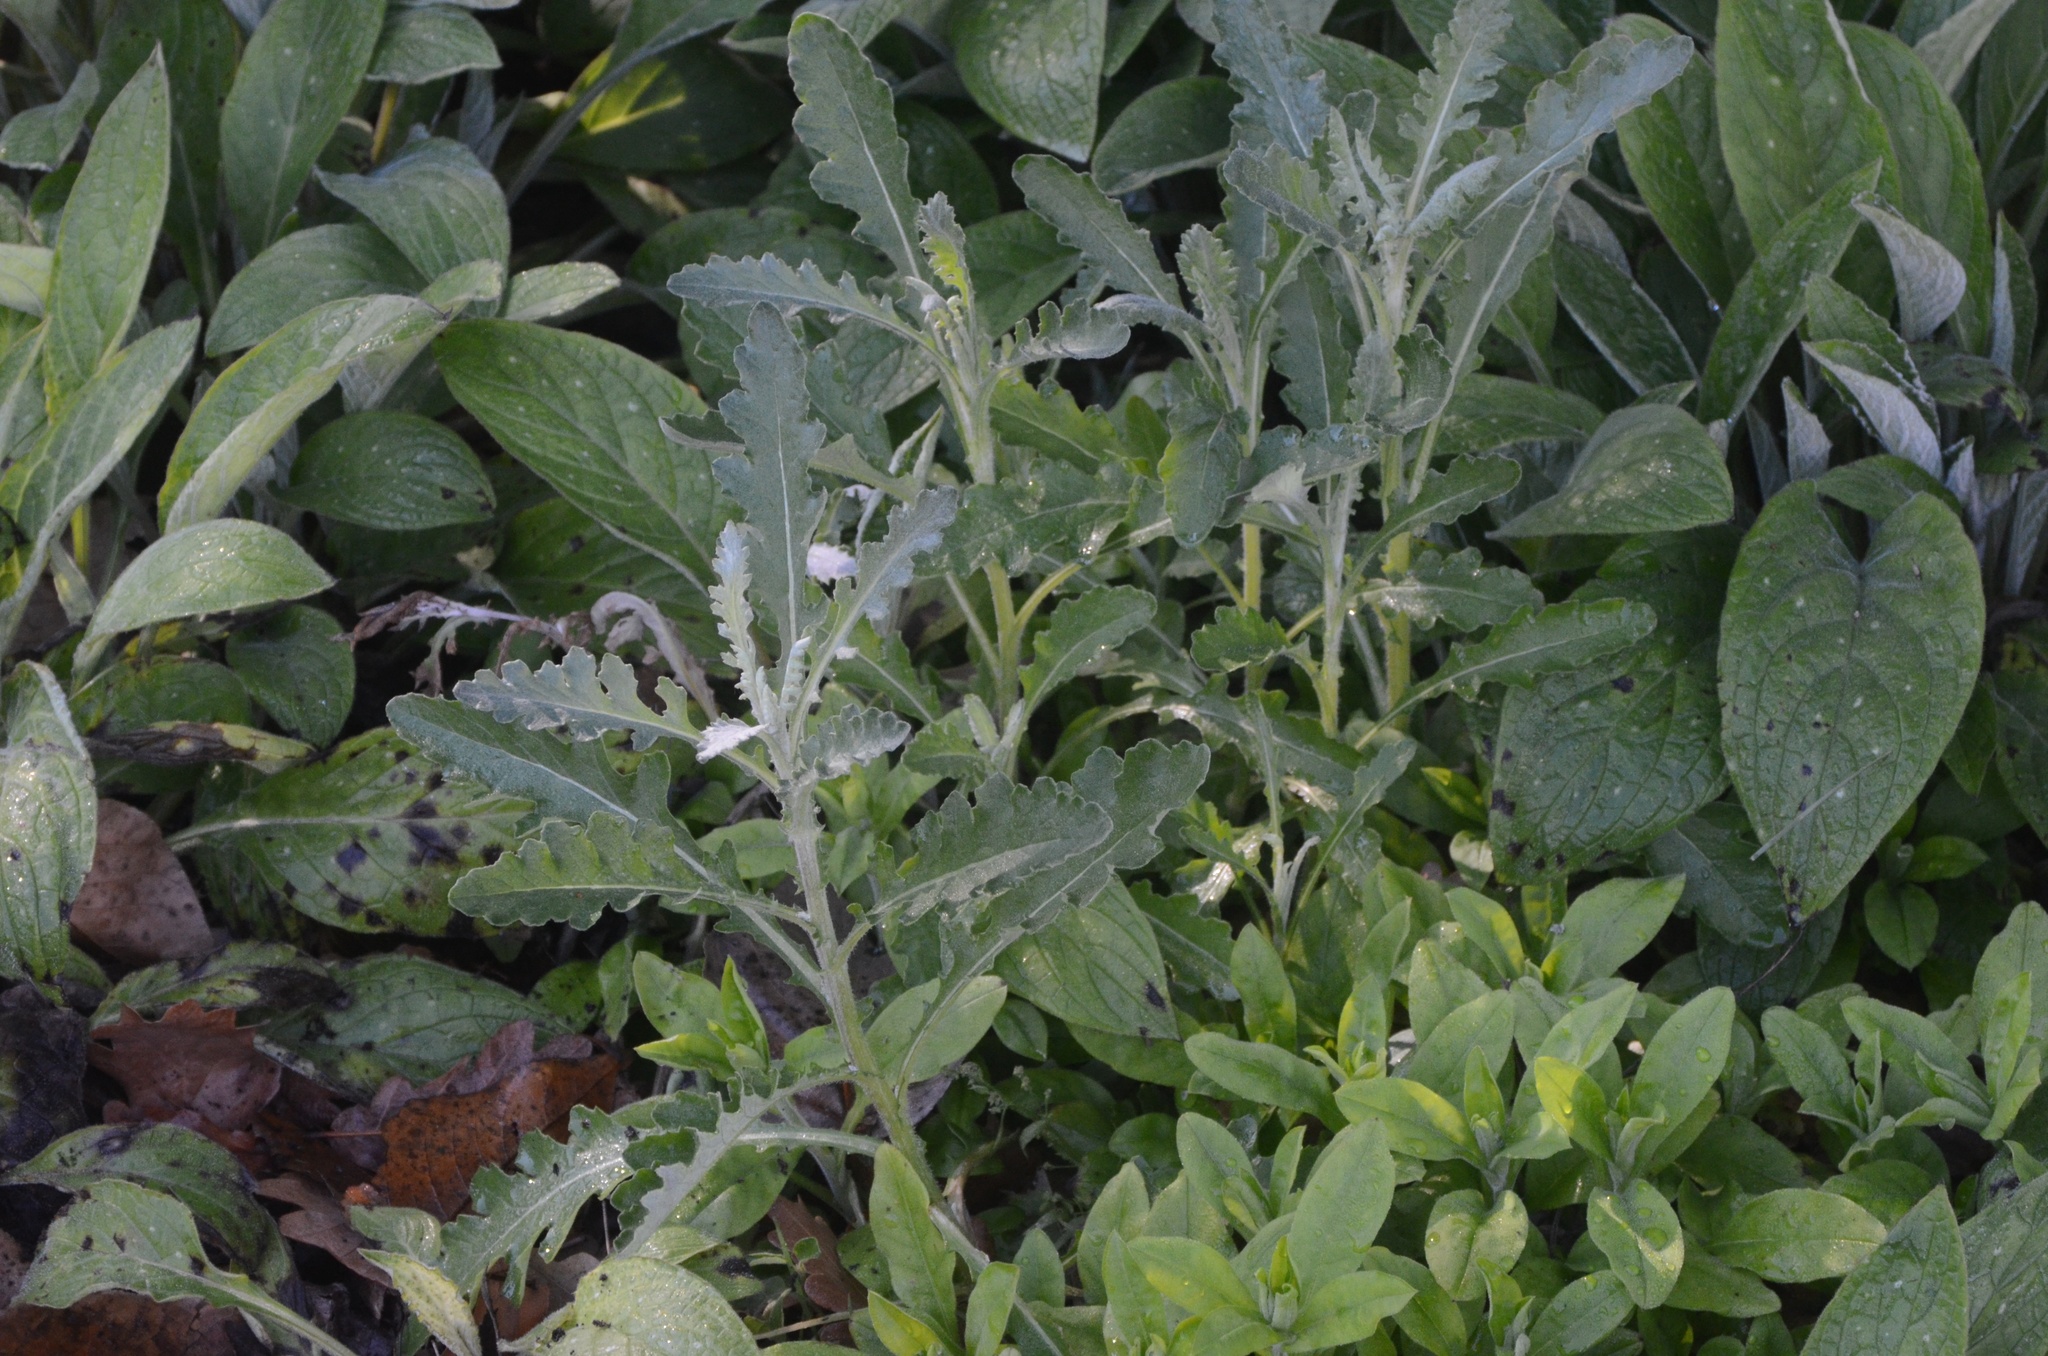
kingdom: Plantae
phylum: Tracheophyta
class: Magnoliopsida
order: Asterales
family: Asteraceae
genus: Senecio
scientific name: Senecio glomeratus
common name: Cutleaf burnweed
